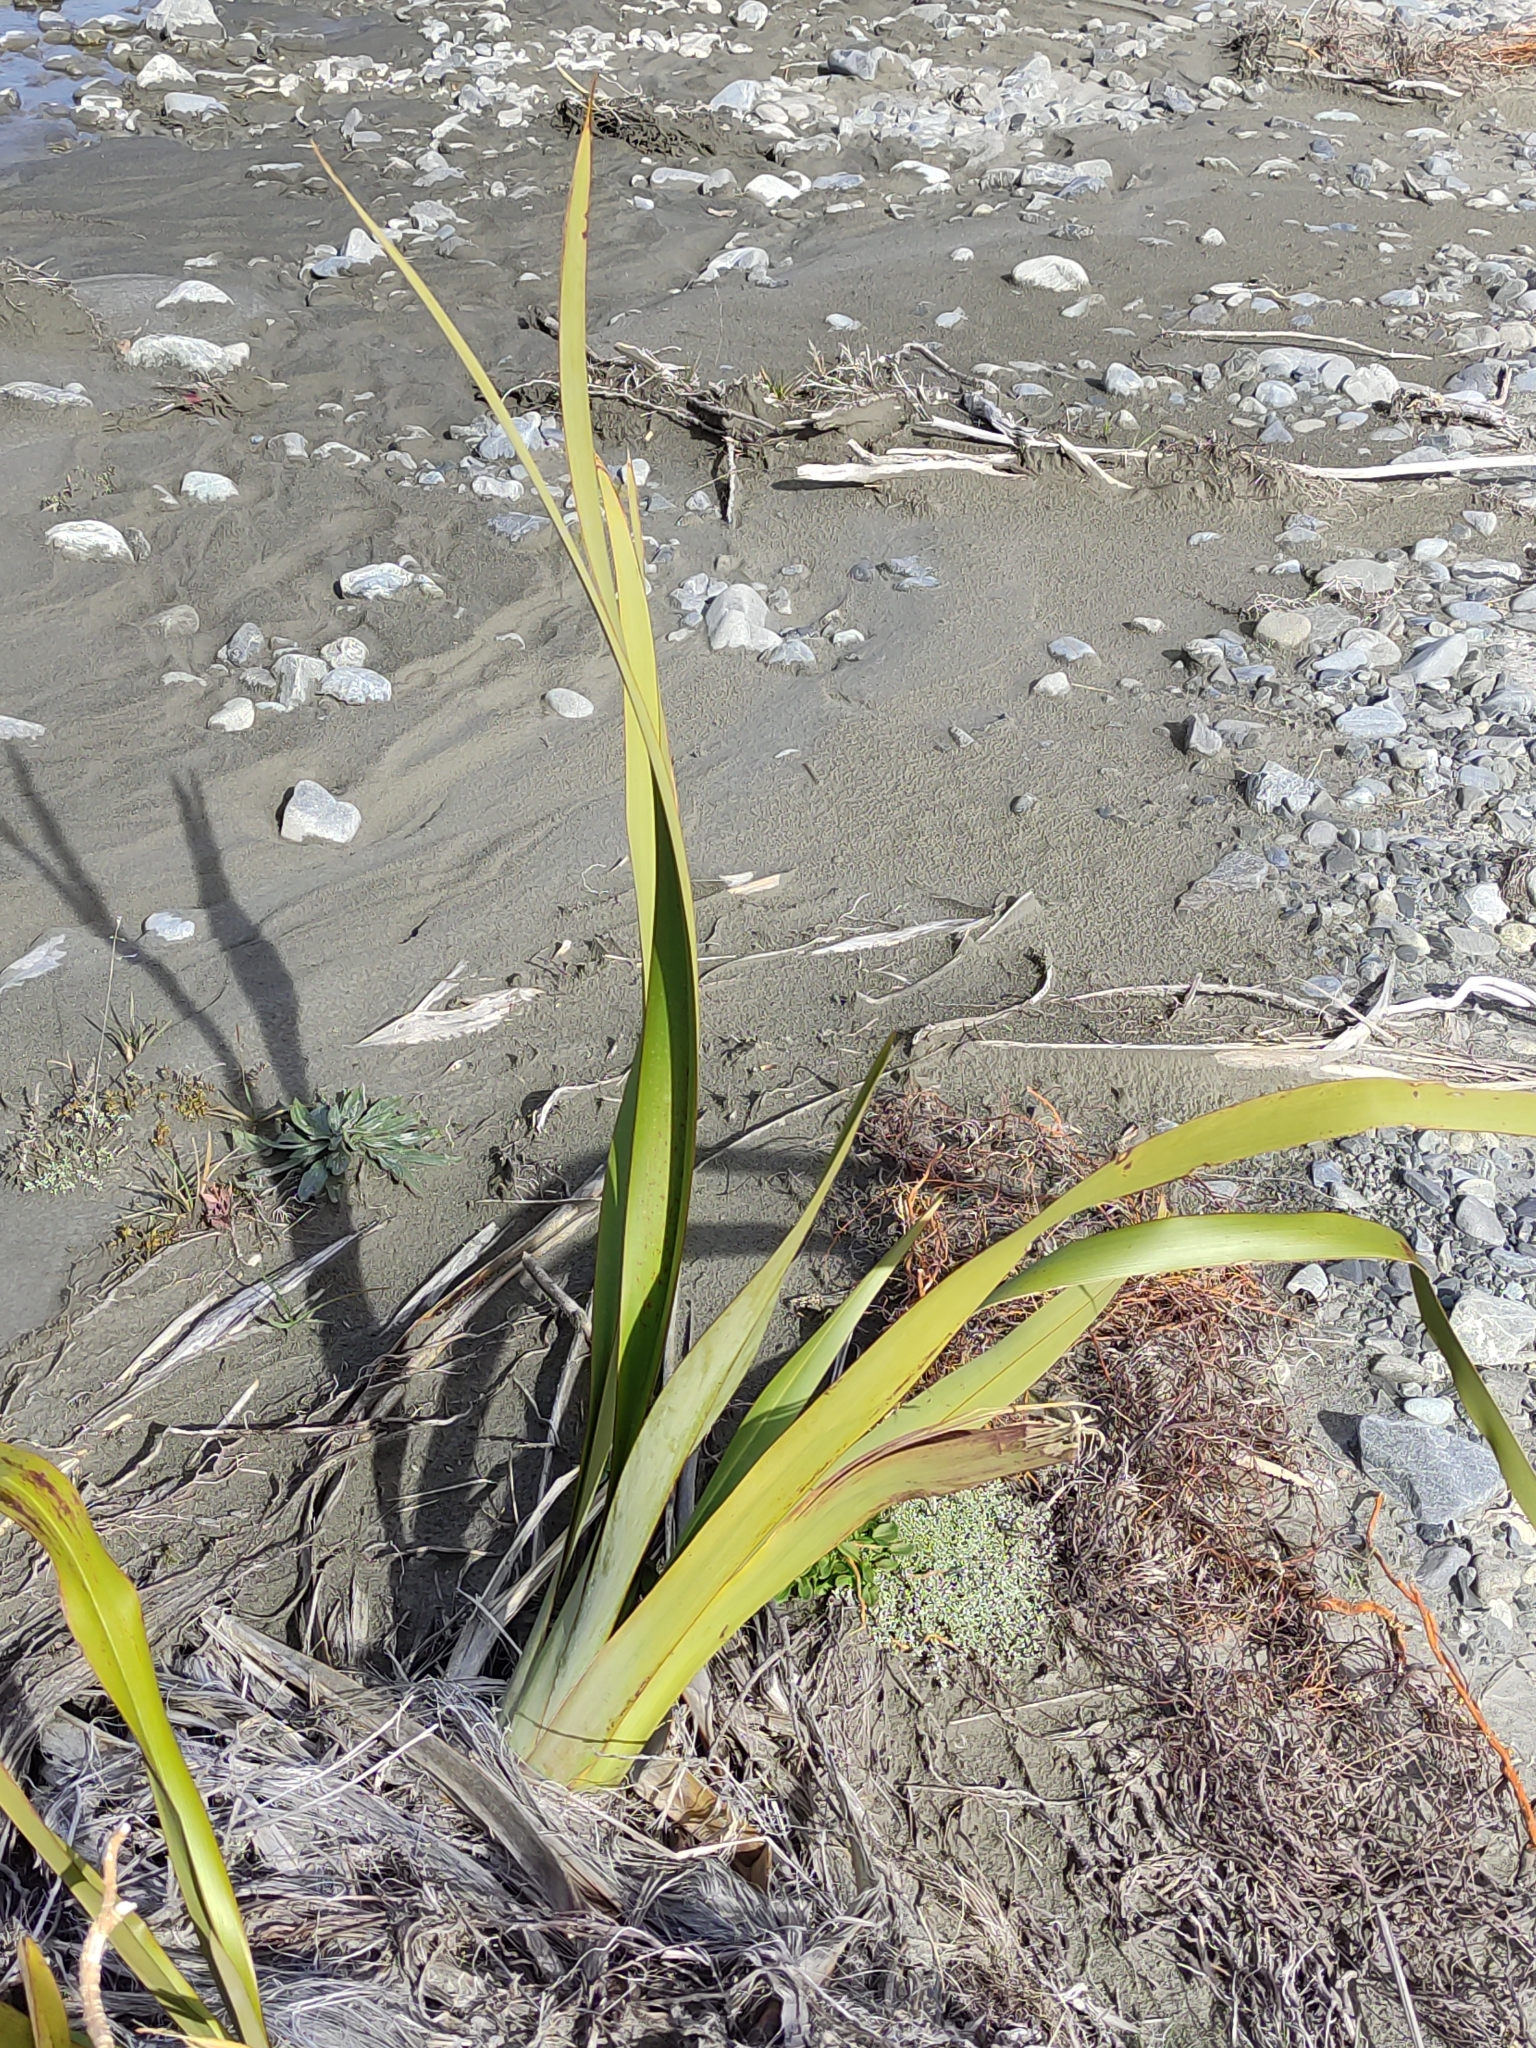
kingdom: Plantae
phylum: Tracheophyta
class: Liliopsida
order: Asparagales
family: Asphodelaceae
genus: Phormium
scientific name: Phormium tenax
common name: New zealand flax
